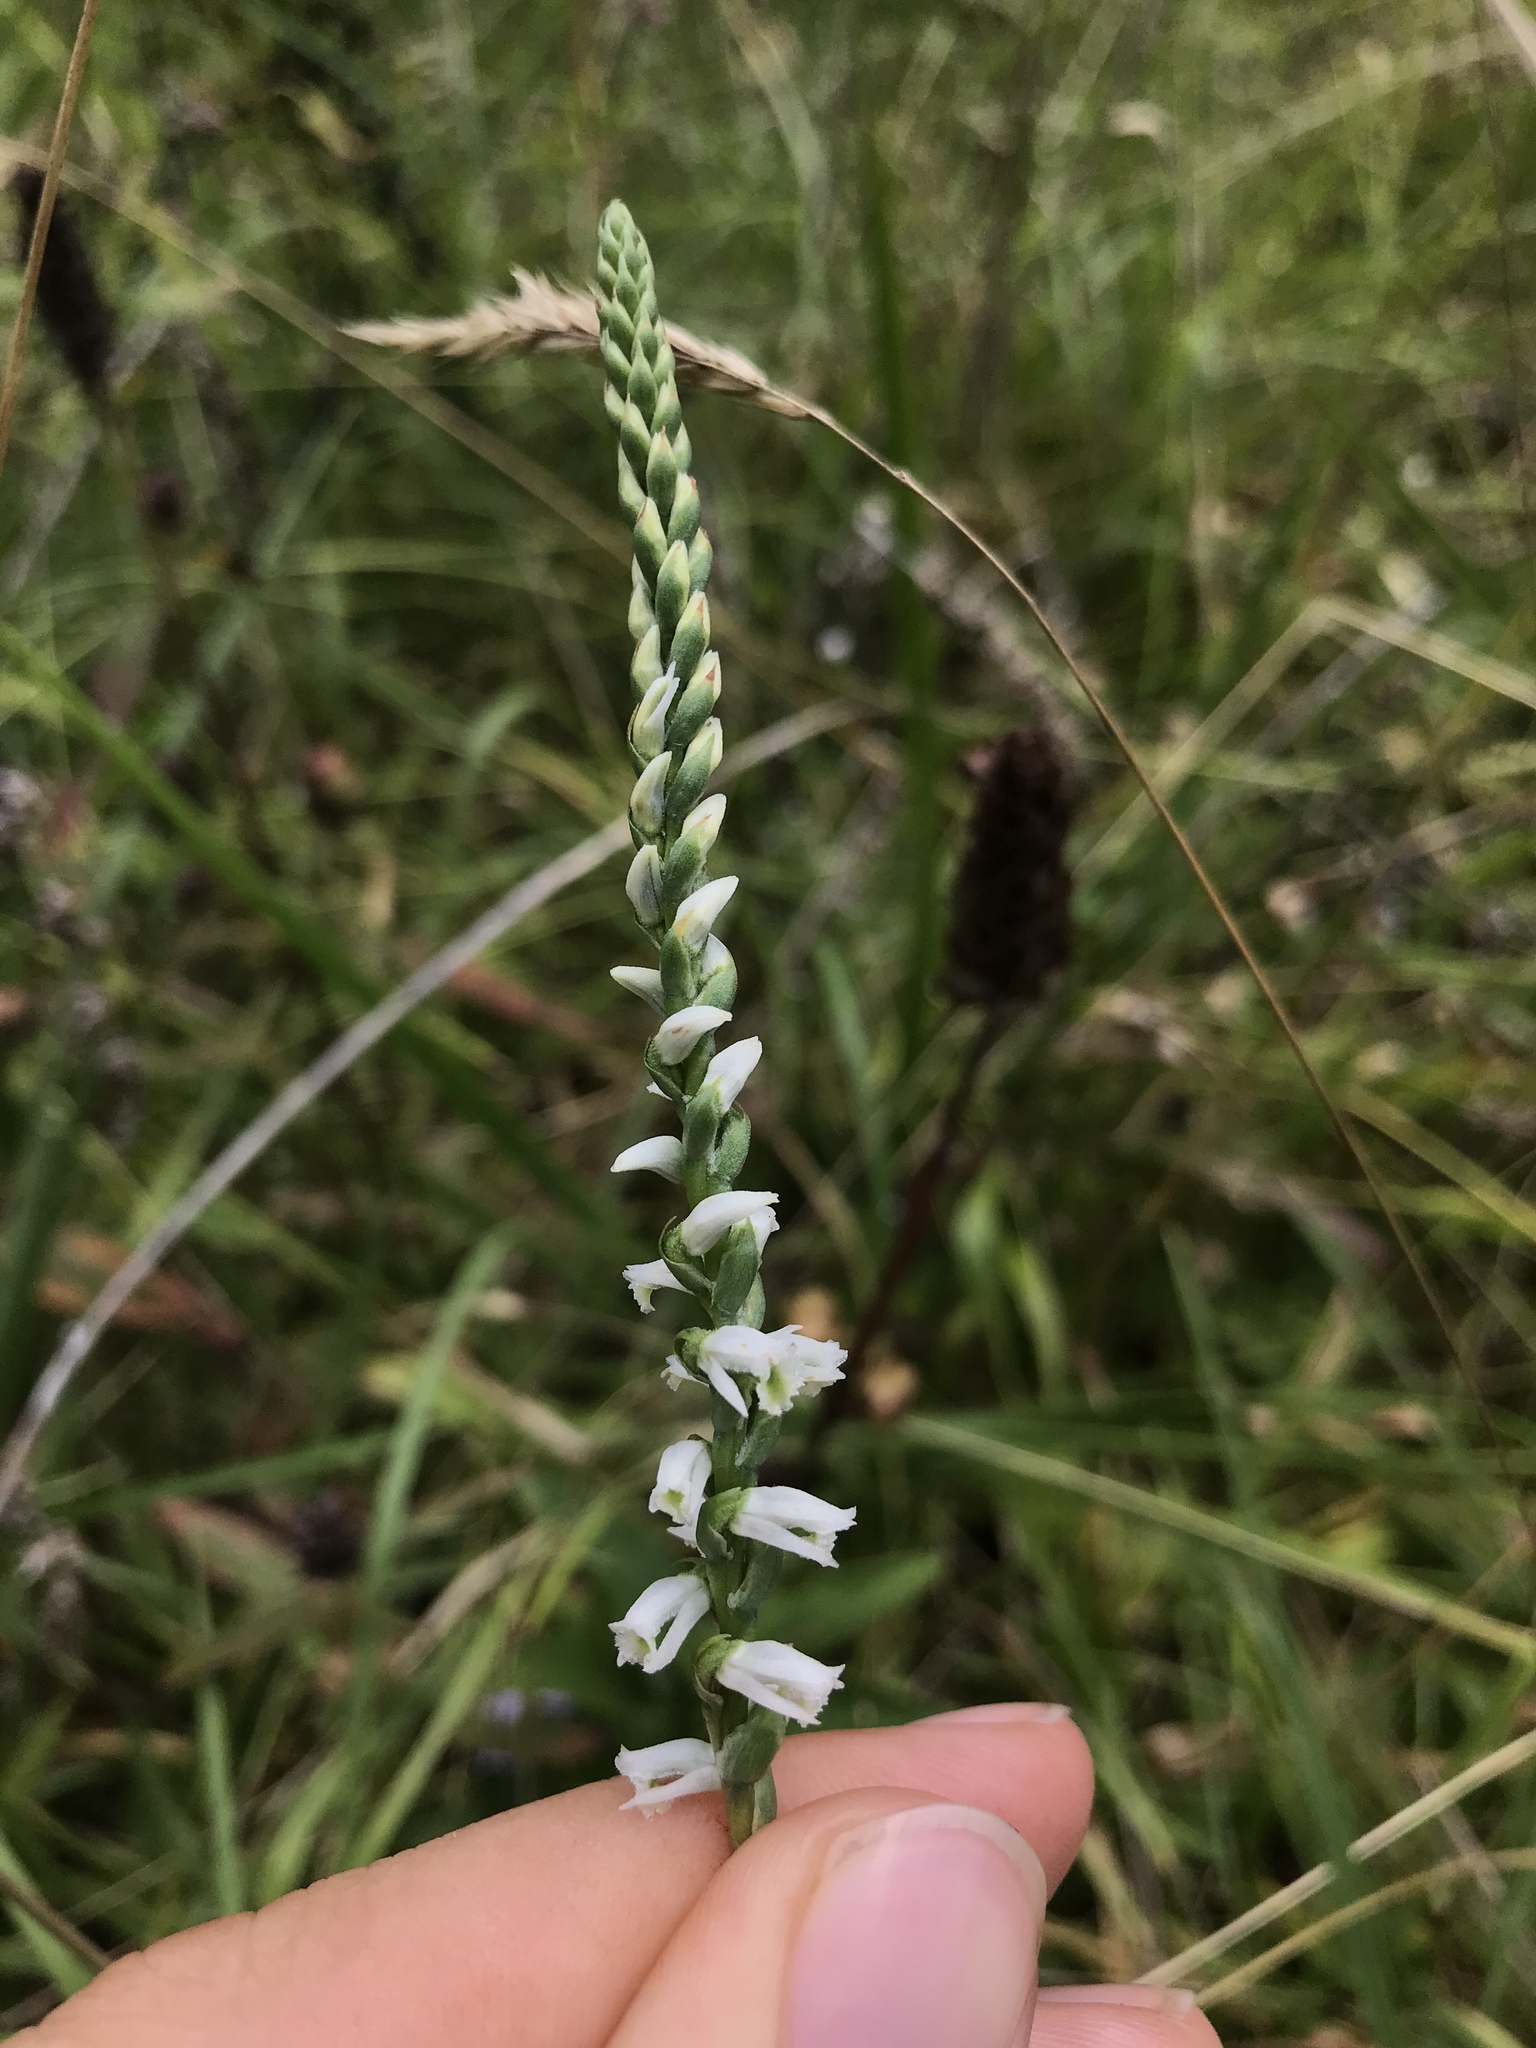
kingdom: Plantae
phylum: Tracheophyta
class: Liliopsida
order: Asparagales
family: Orchidaceae
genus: Spiranthes
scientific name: Spiranthes lacera
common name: Northern slender ladies'-tresses
